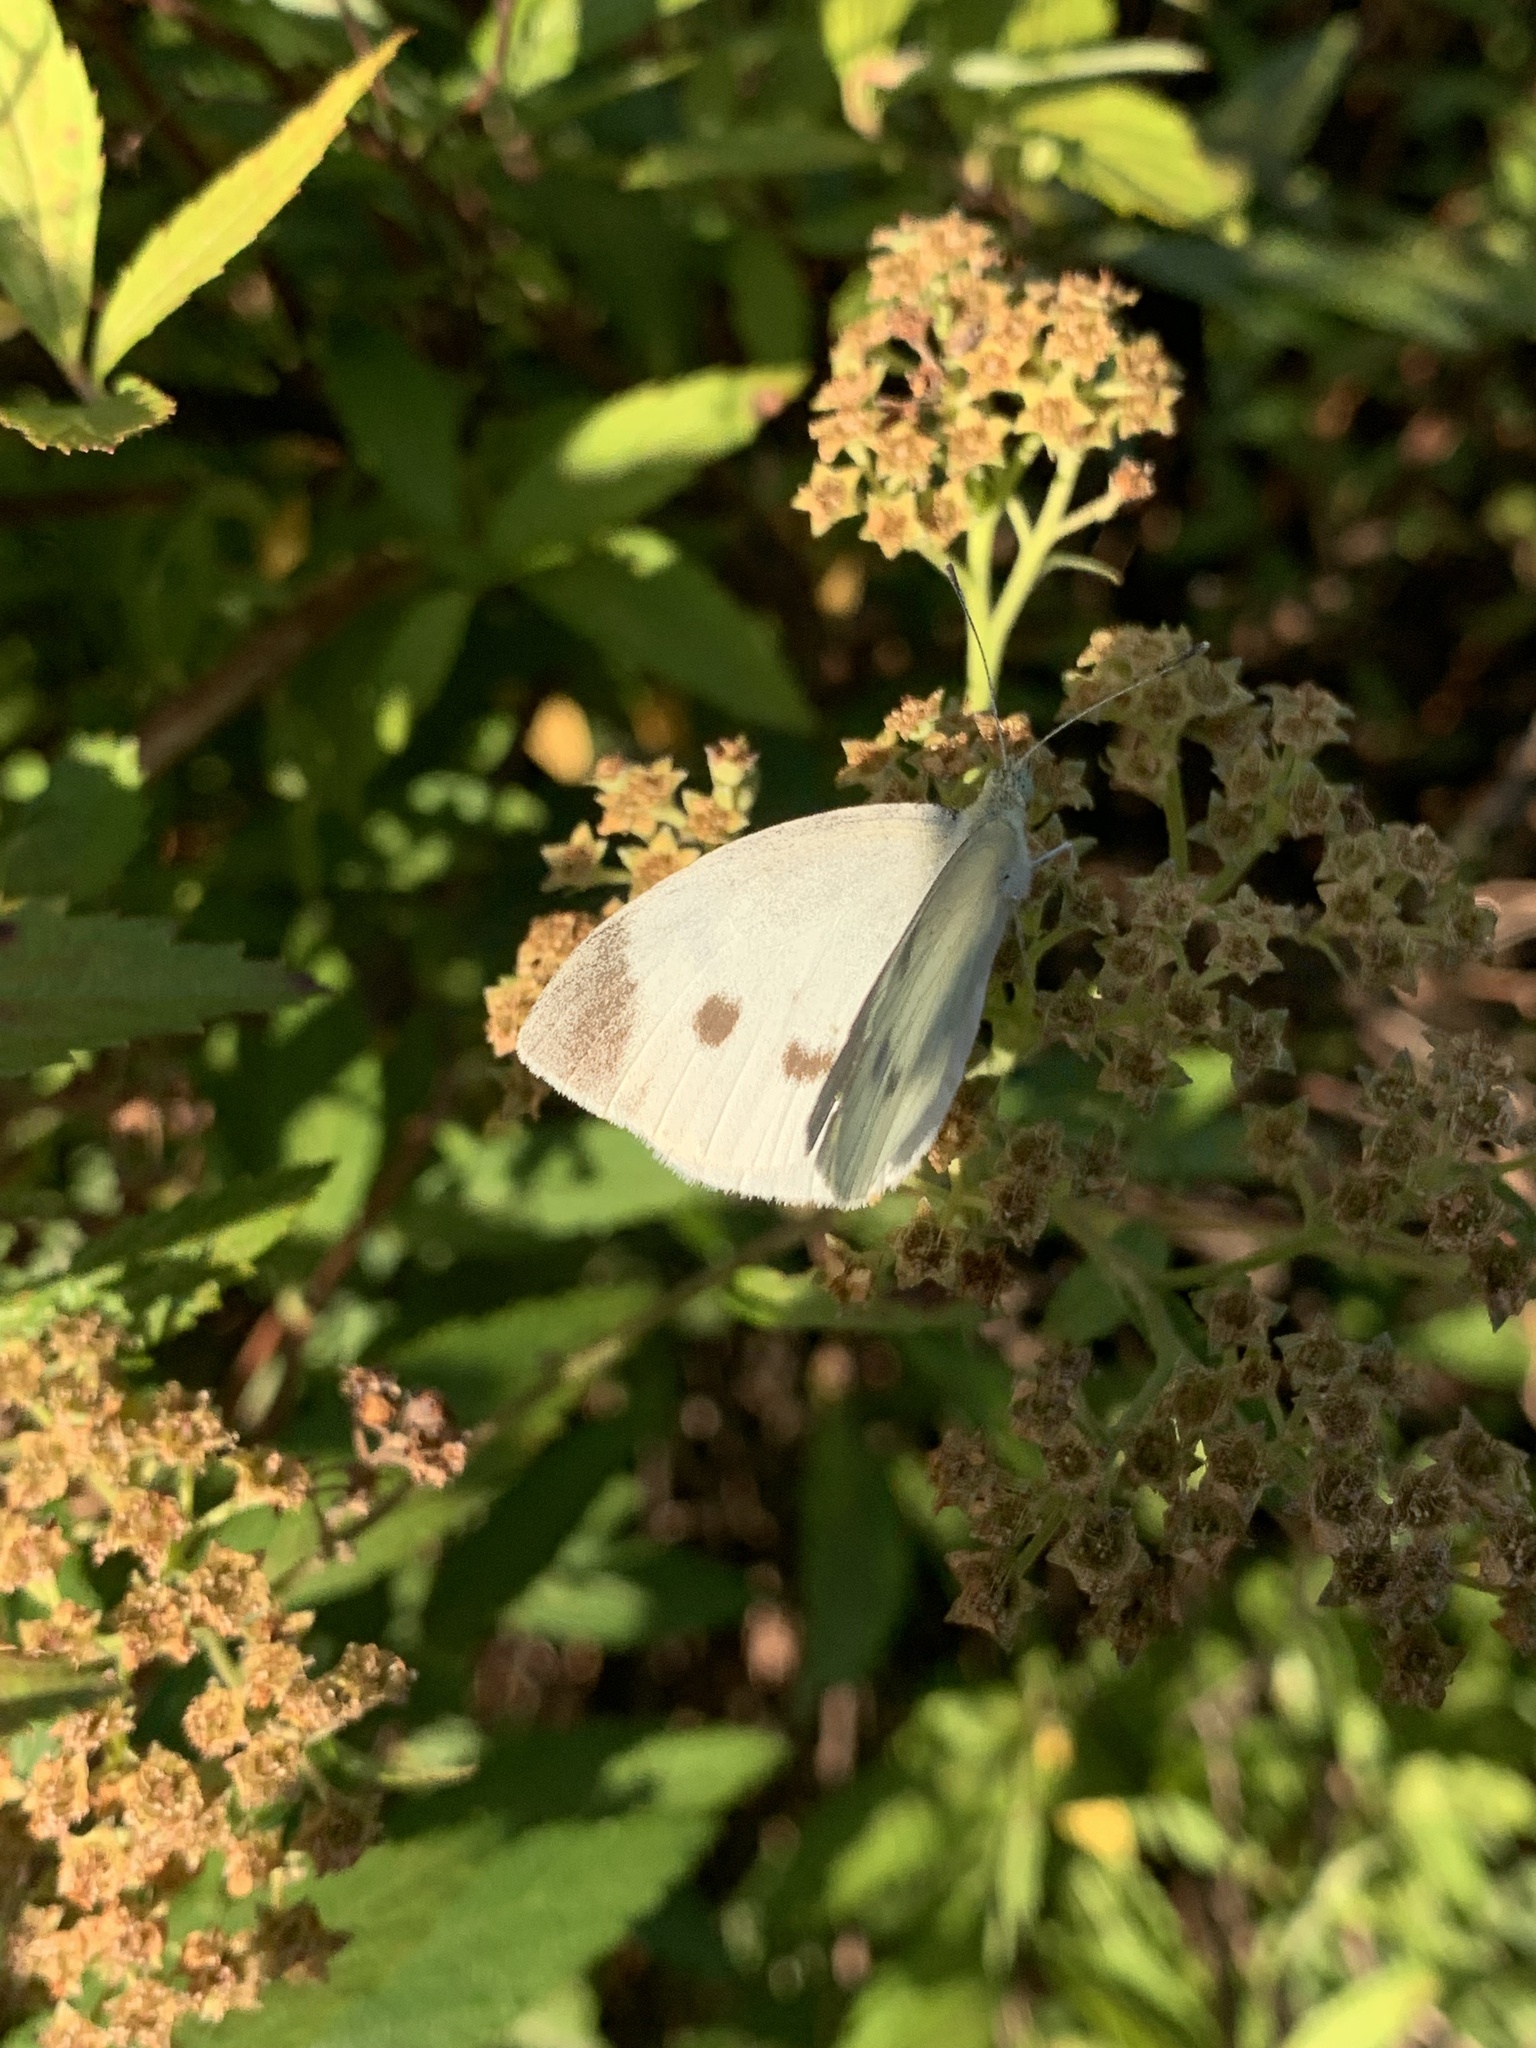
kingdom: Animalia
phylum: Arthropoda
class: Insecta
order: Lepidoptera
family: Pieridae
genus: Pieris
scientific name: Pieris rapae
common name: Small white
